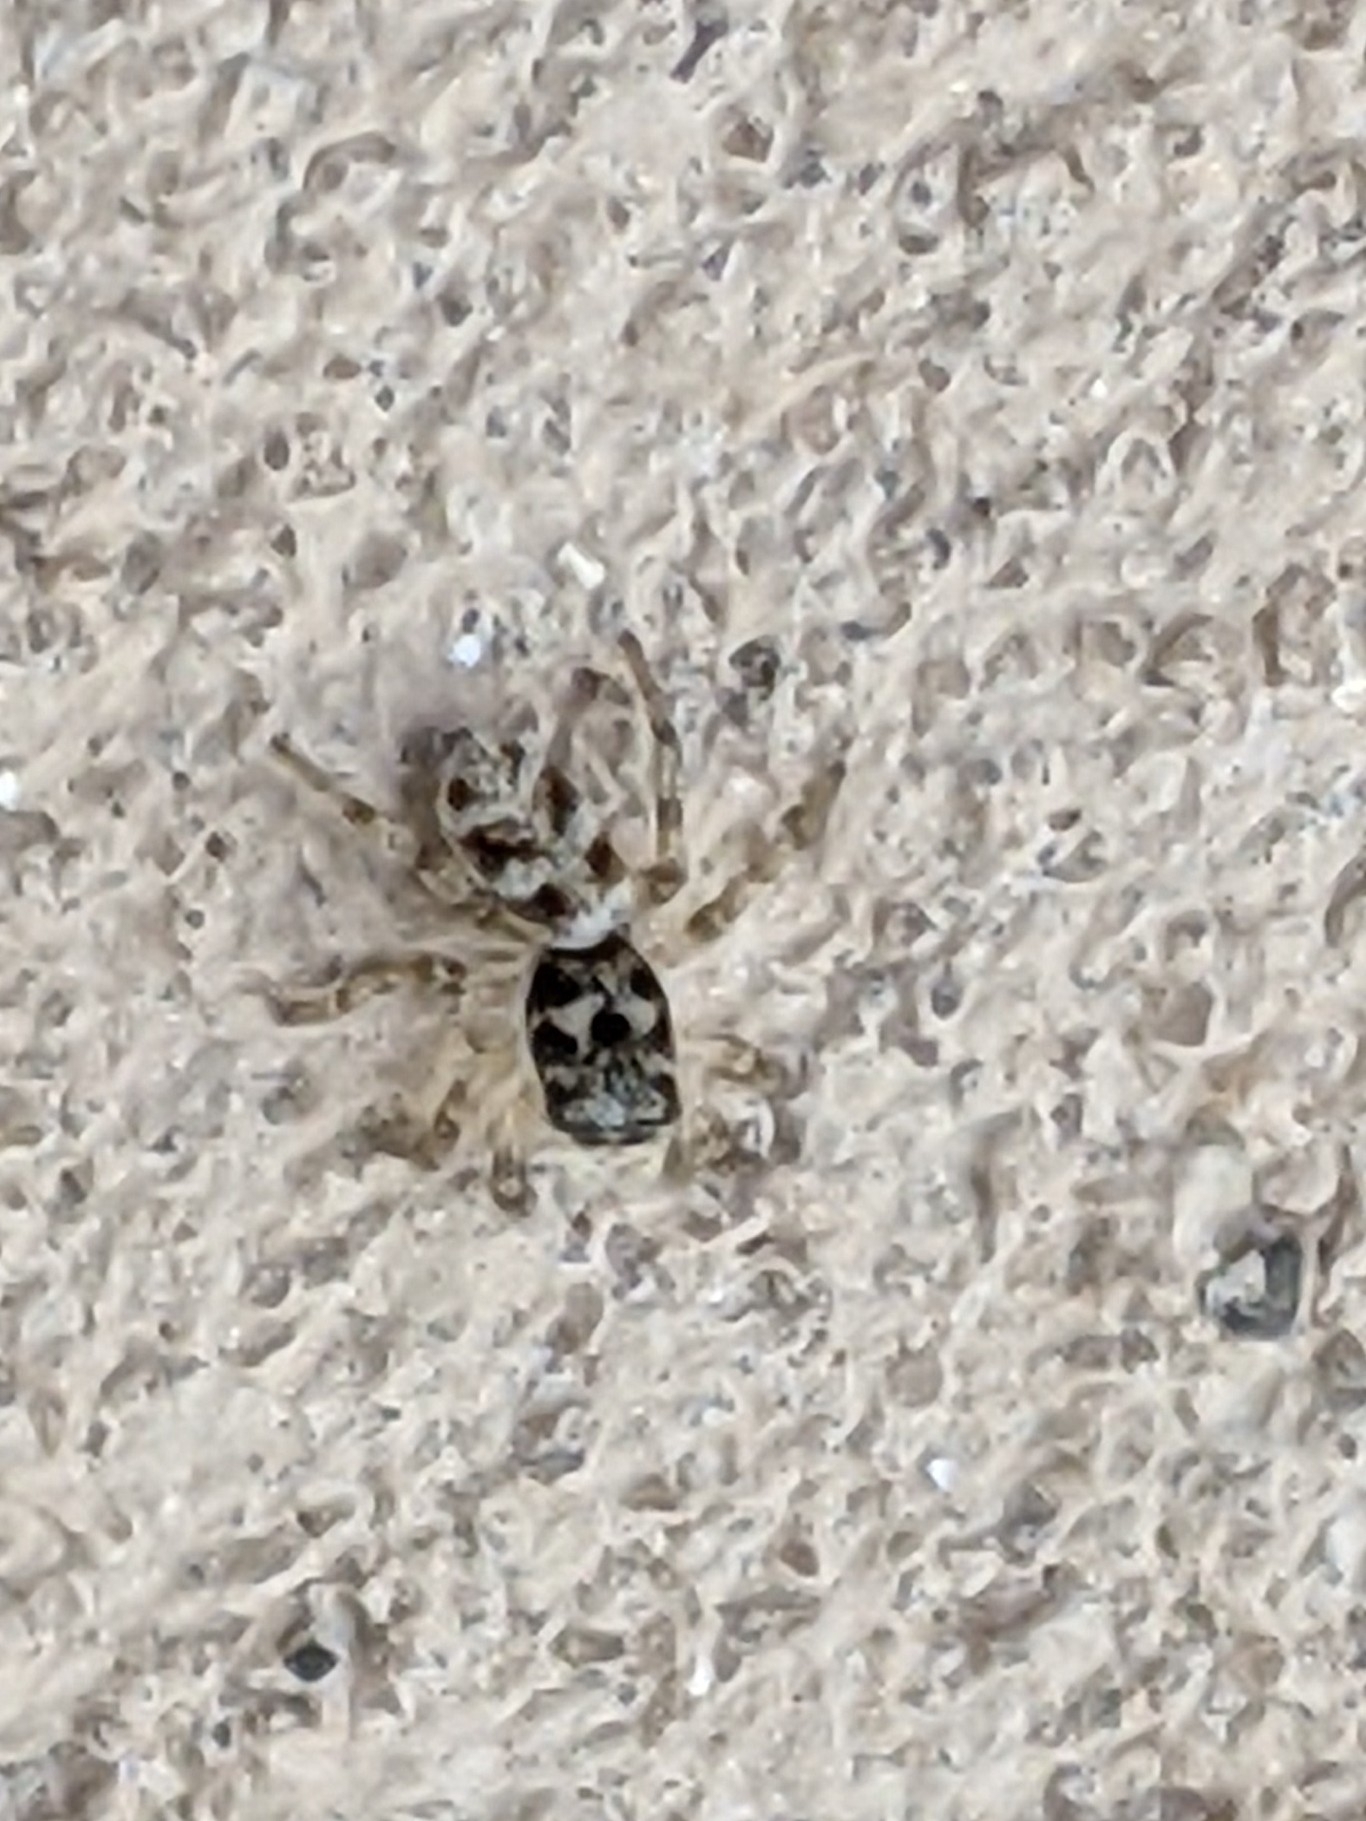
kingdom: Animalia
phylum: Arthropoda
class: Arachnida
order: Araneae
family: Salticidae
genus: Salticus
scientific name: Salticus scenicus
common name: Zebra jumper
